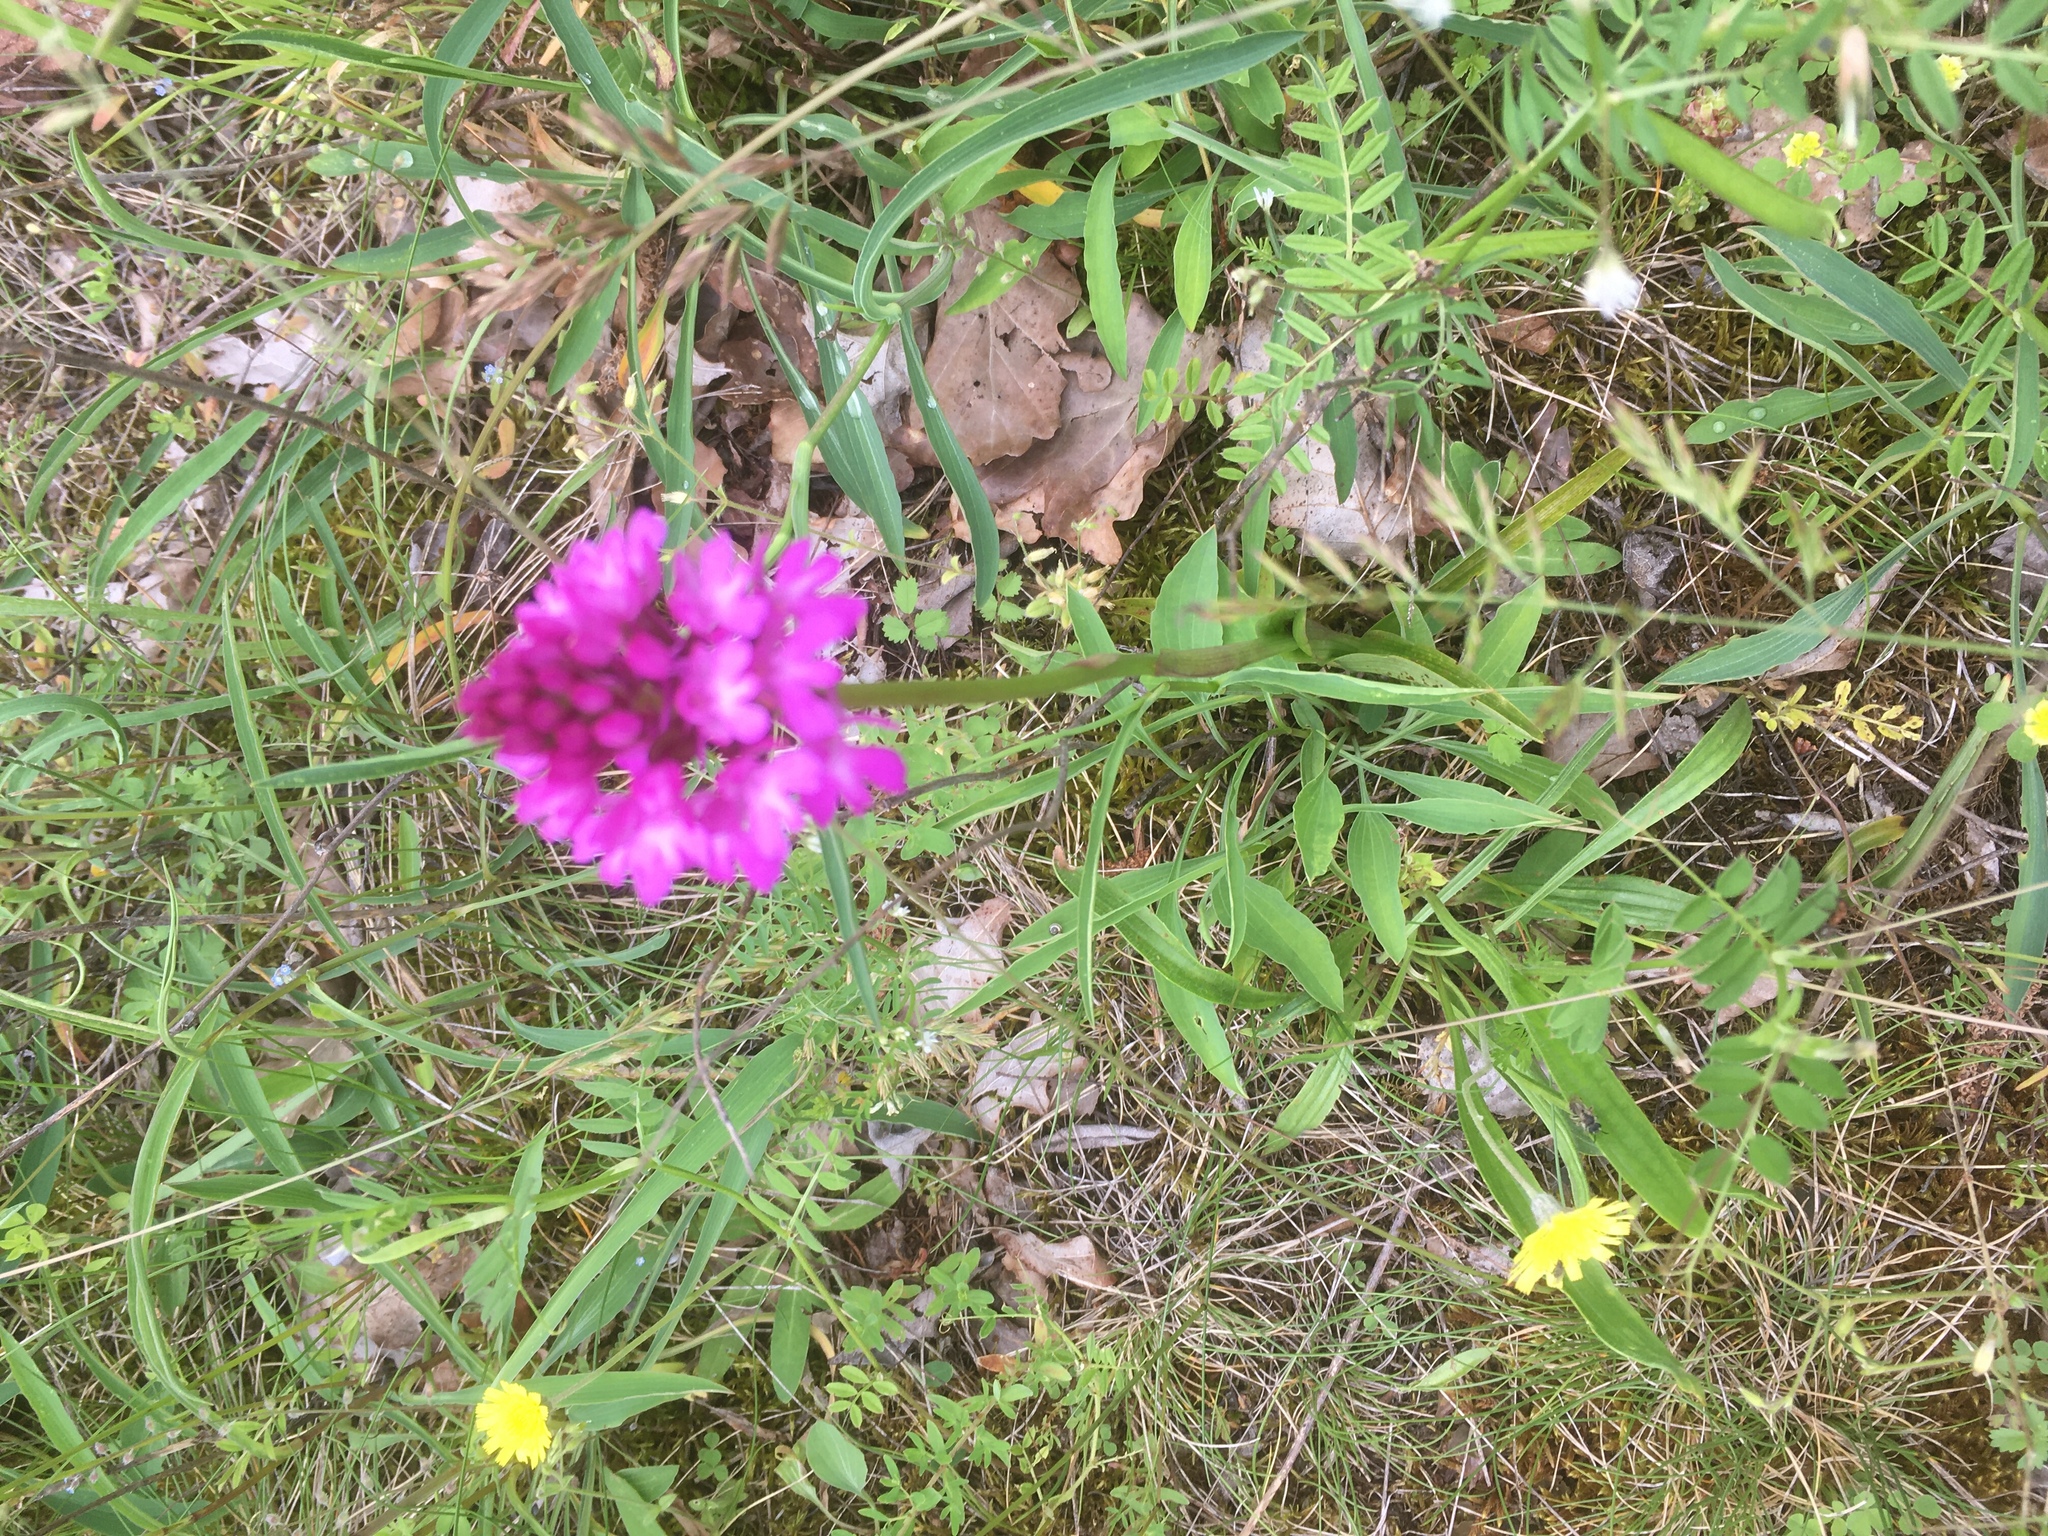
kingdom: Plantae
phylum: Tracheophyta
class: Liliopsida
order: Asparagales
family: Orchidaceae
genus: Anacamptis
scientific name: Anacamptis pyramidalis
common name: Pyramidal orchid
